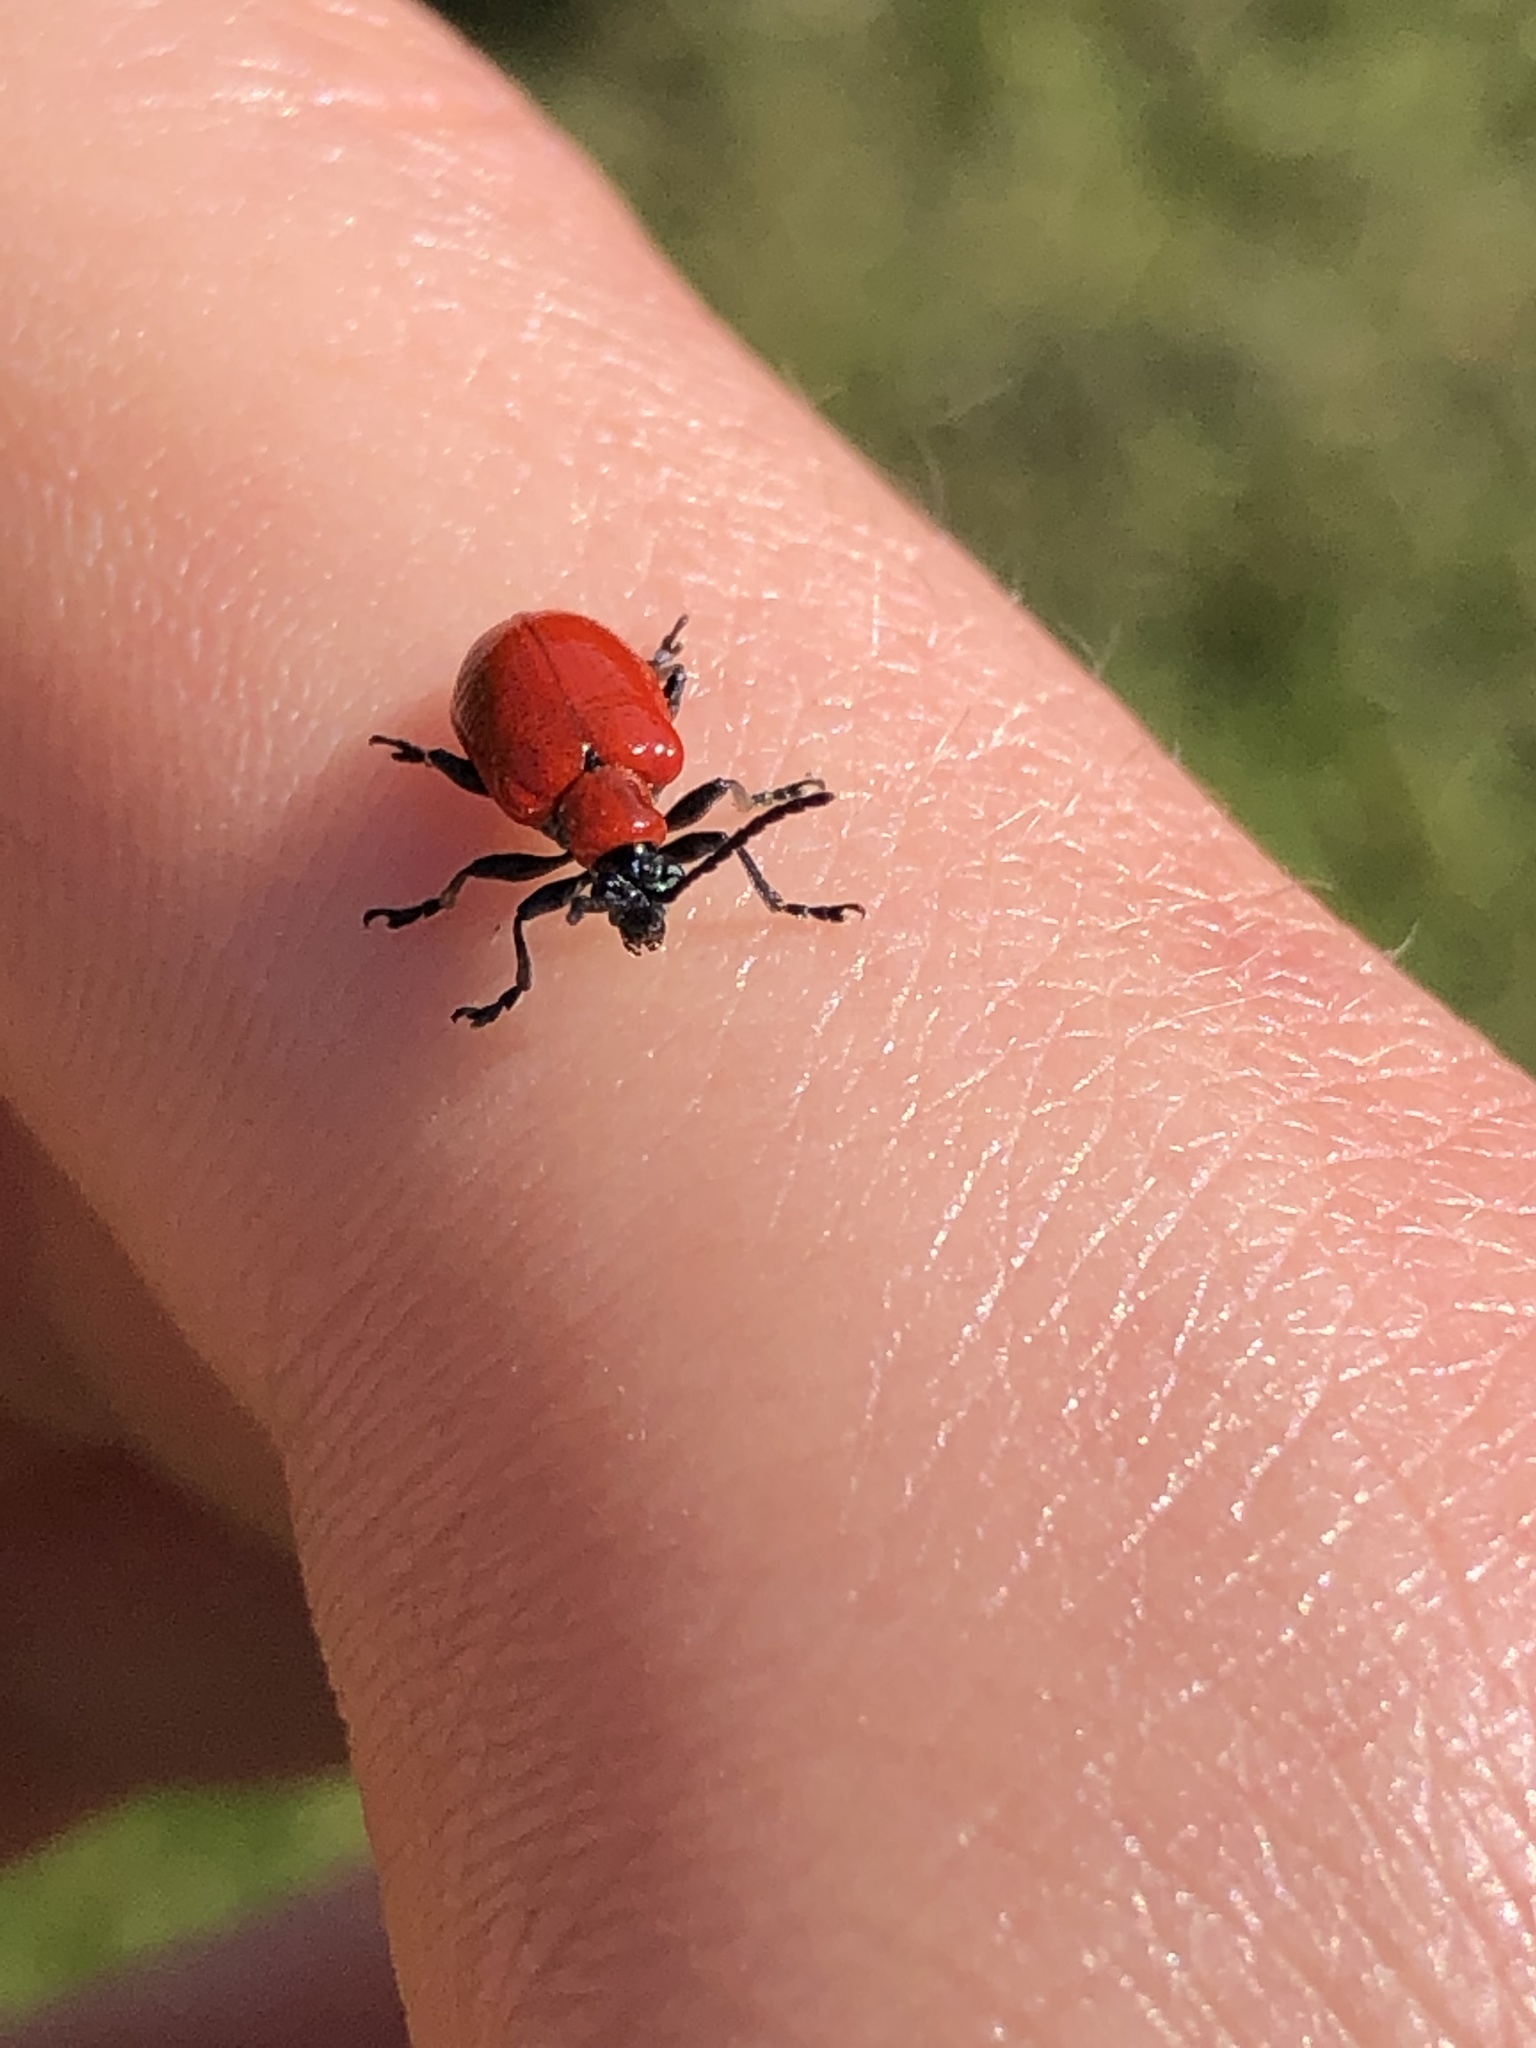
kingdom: Animalia
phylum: Arthropoda
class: Insecta
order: Coleoptera
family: Chrysomelidae
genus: Lilioceris
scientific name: Lilioceris lilii
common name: Lily beetle
